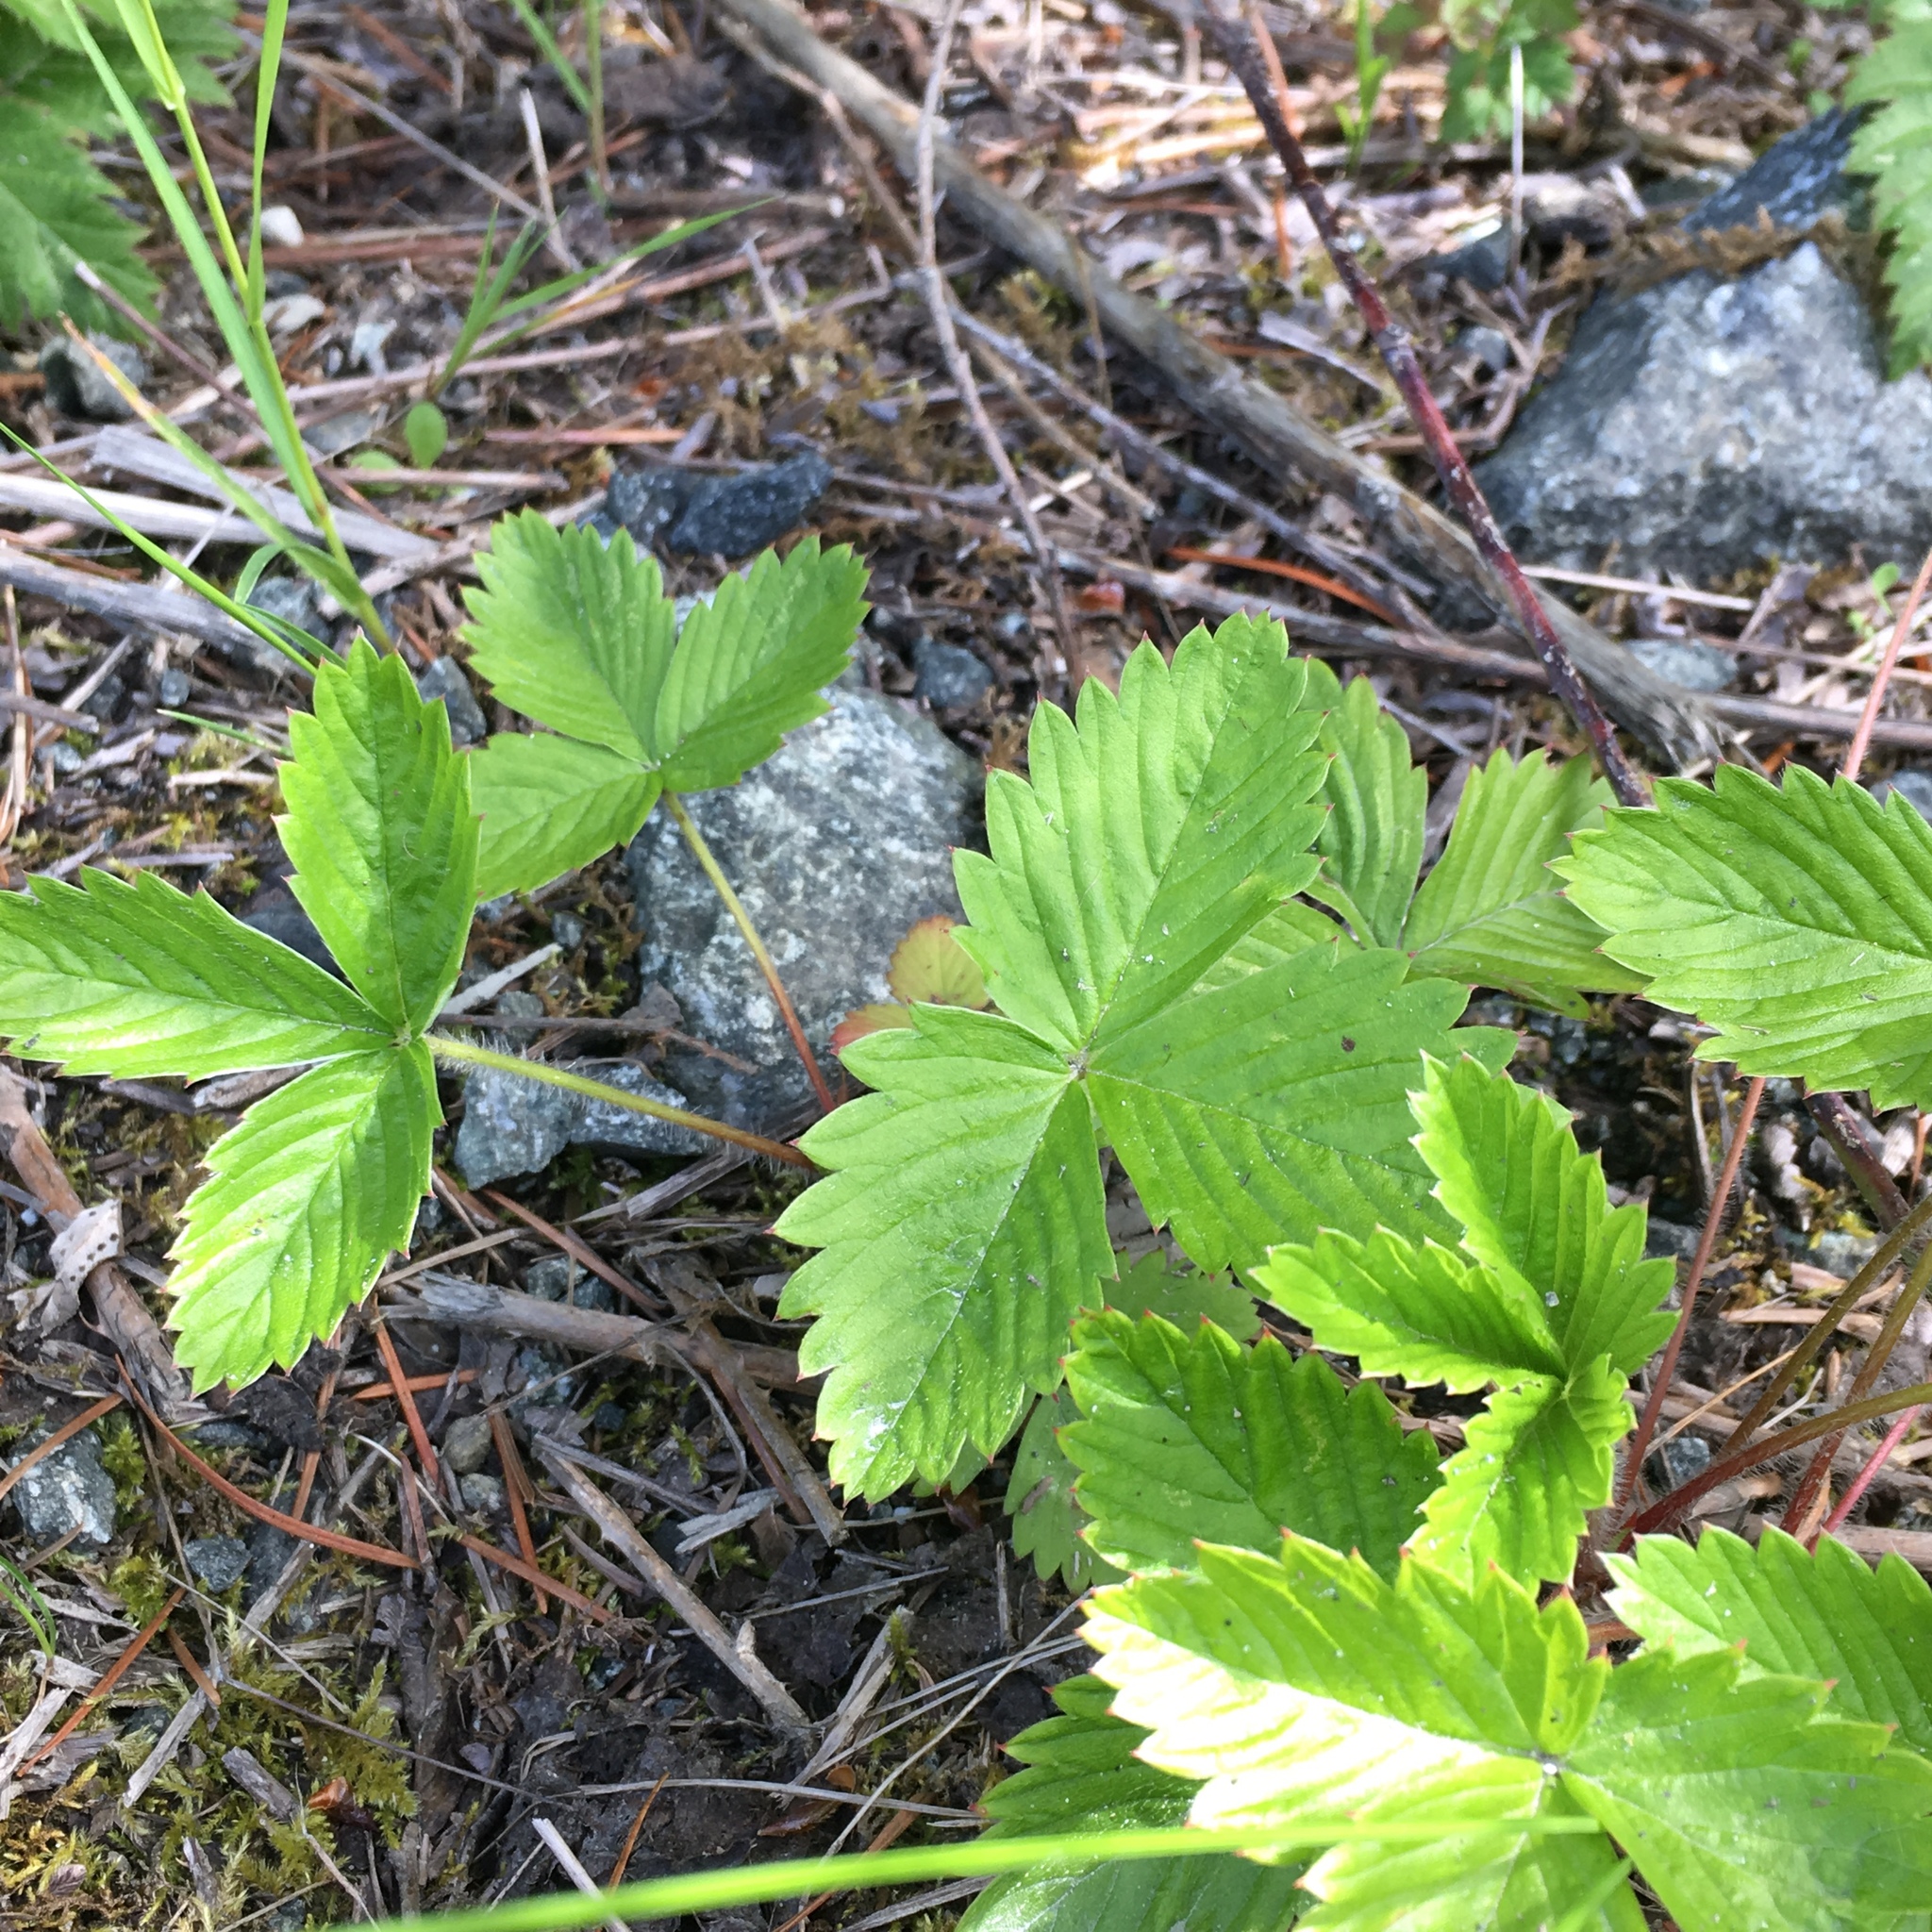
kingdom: Plantae
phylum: Tracheophyta
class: Magnoliopsida
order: Rosales
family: Rosaceae
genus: Fragaria
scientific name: Fragaria vesca
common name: Wild strawberry
